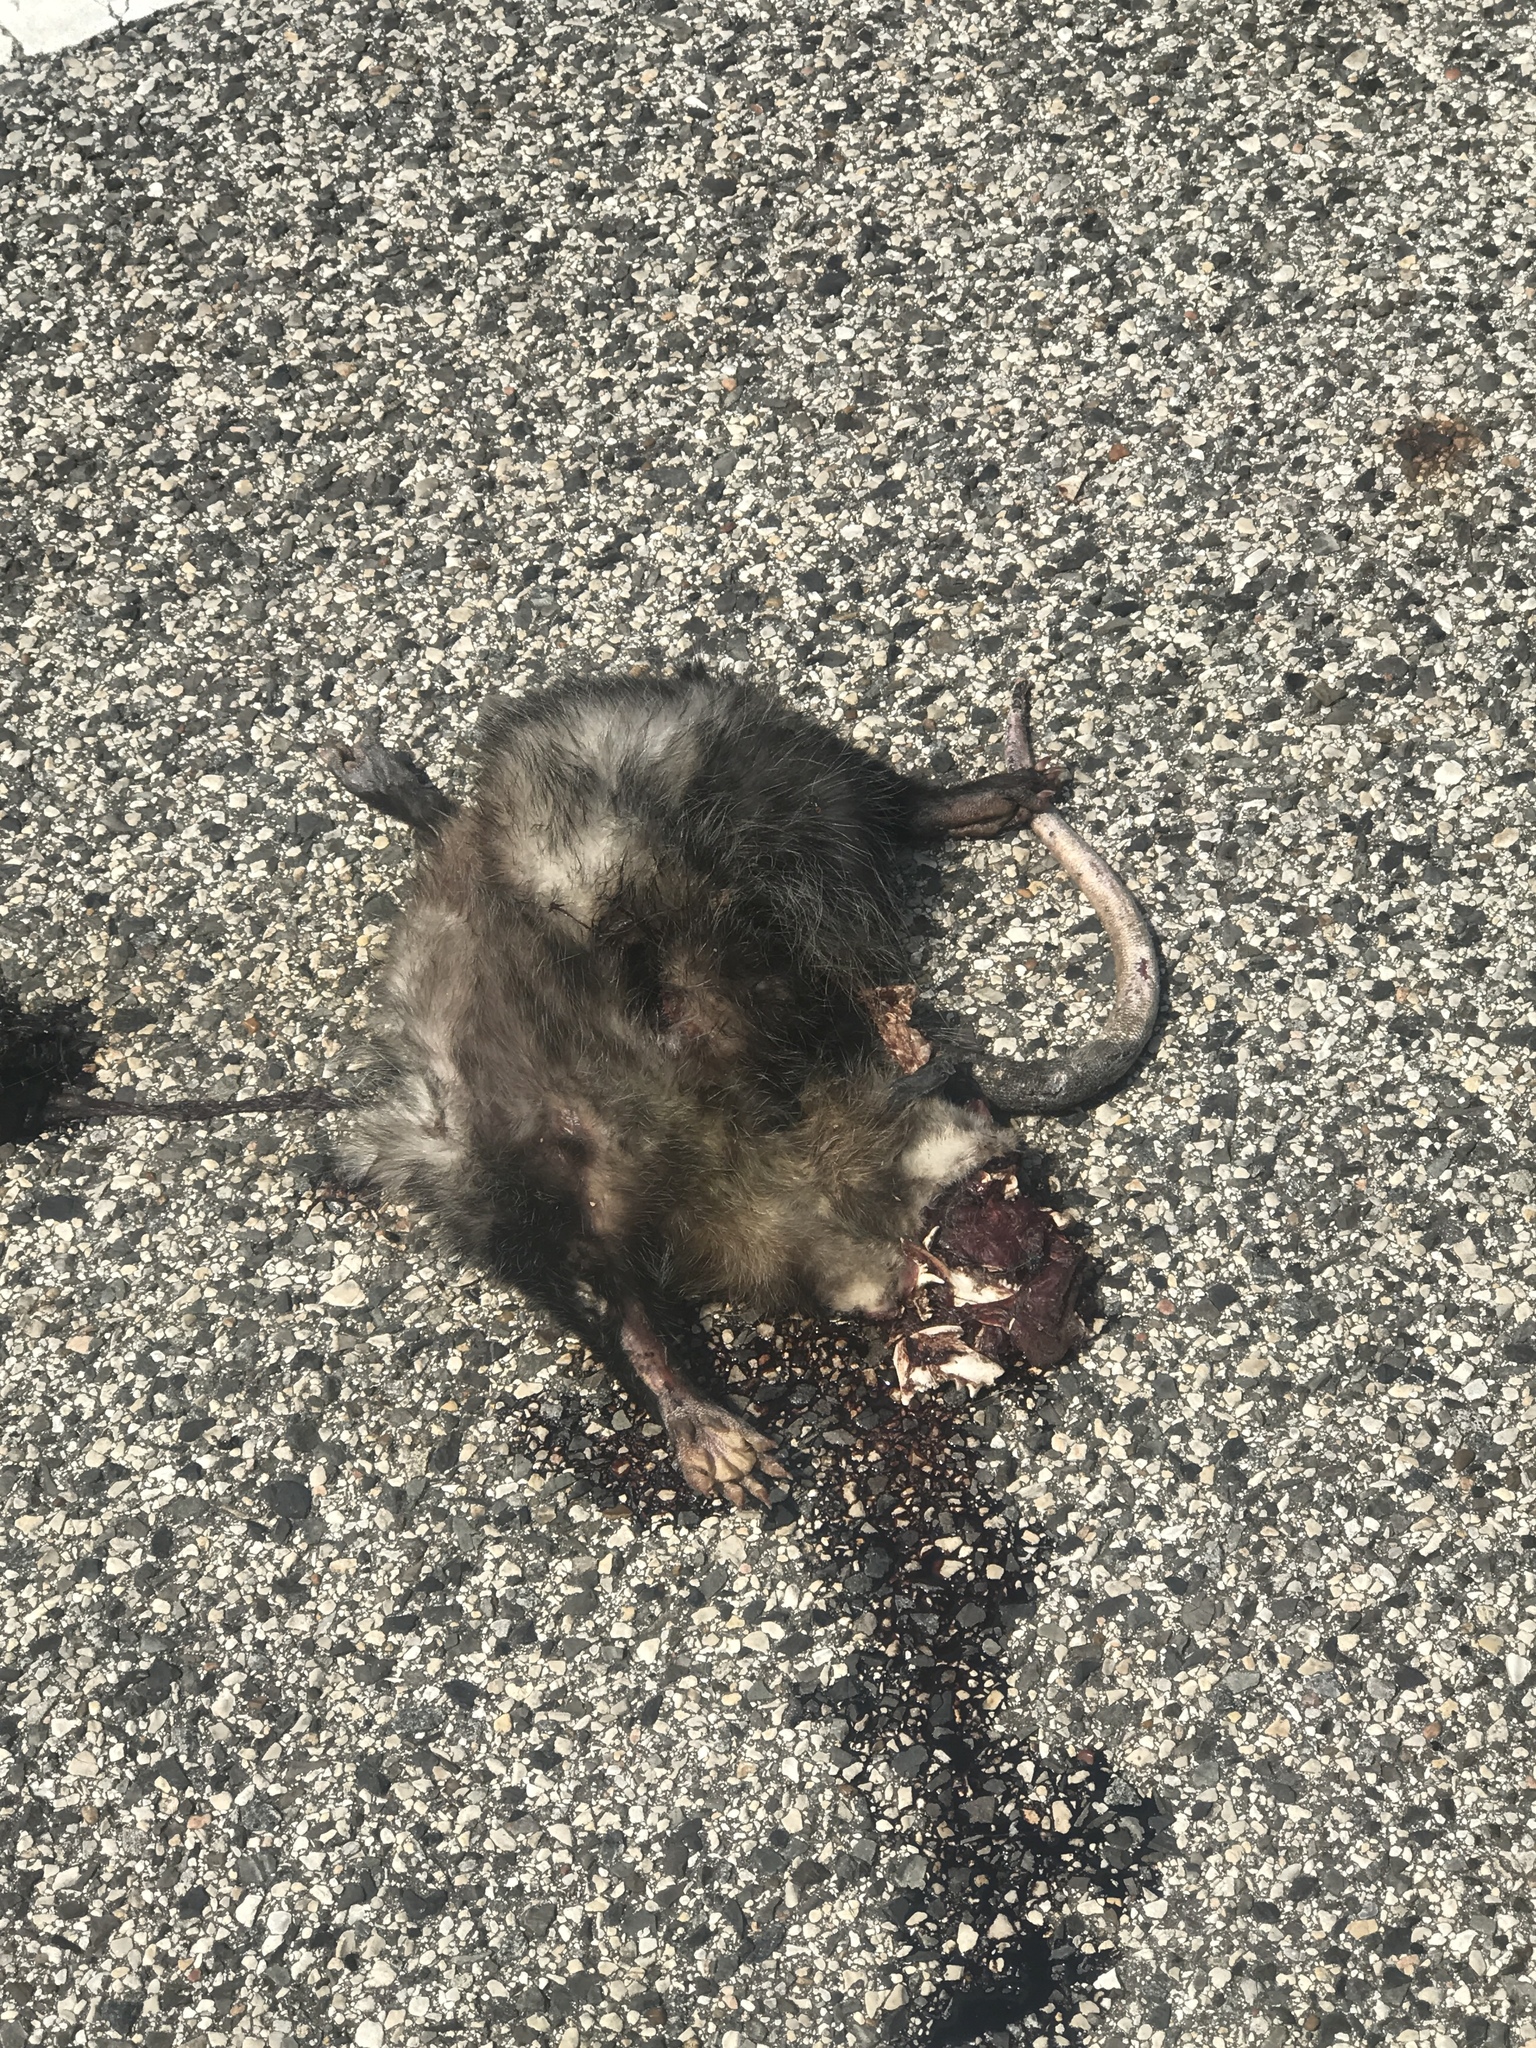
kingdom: Animalia
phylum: Chordata
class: Mammalia
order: Didelphimorphia
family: Didelphidae
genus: Didelphis
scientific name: Didelphis virginiana
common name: Virginia opossum
